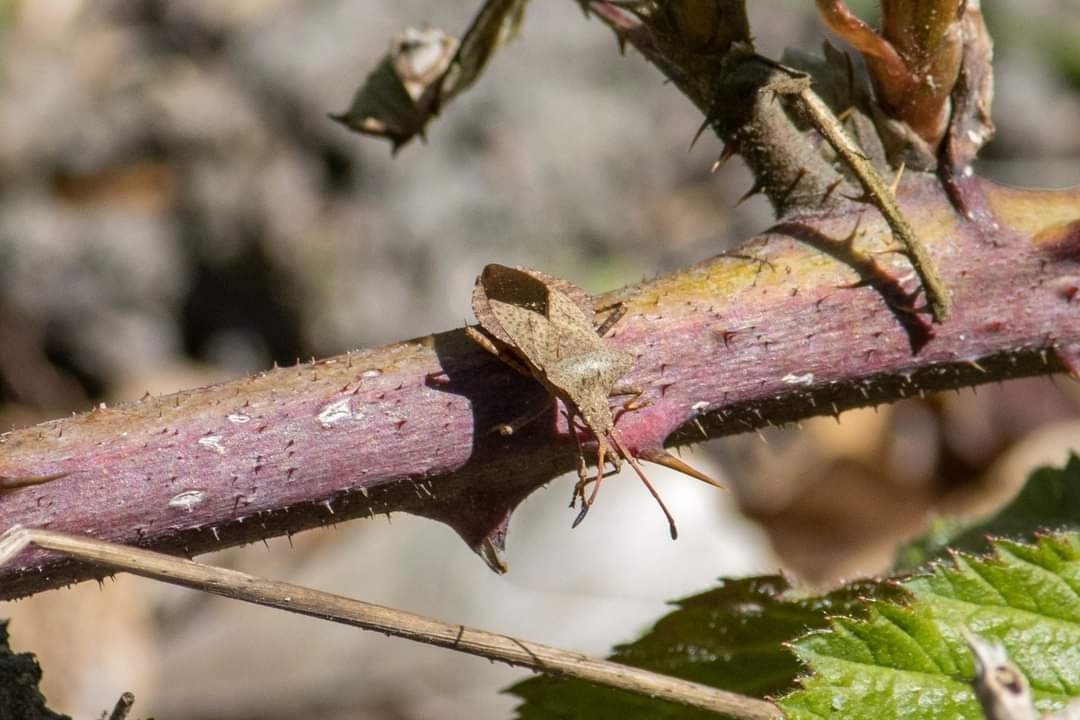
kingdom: Animalia
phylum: Arthropoda
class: Insecta
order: Hemiptera
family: Coreidae
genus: Coreus
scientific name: Coreus marginatus
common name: Dock bug
